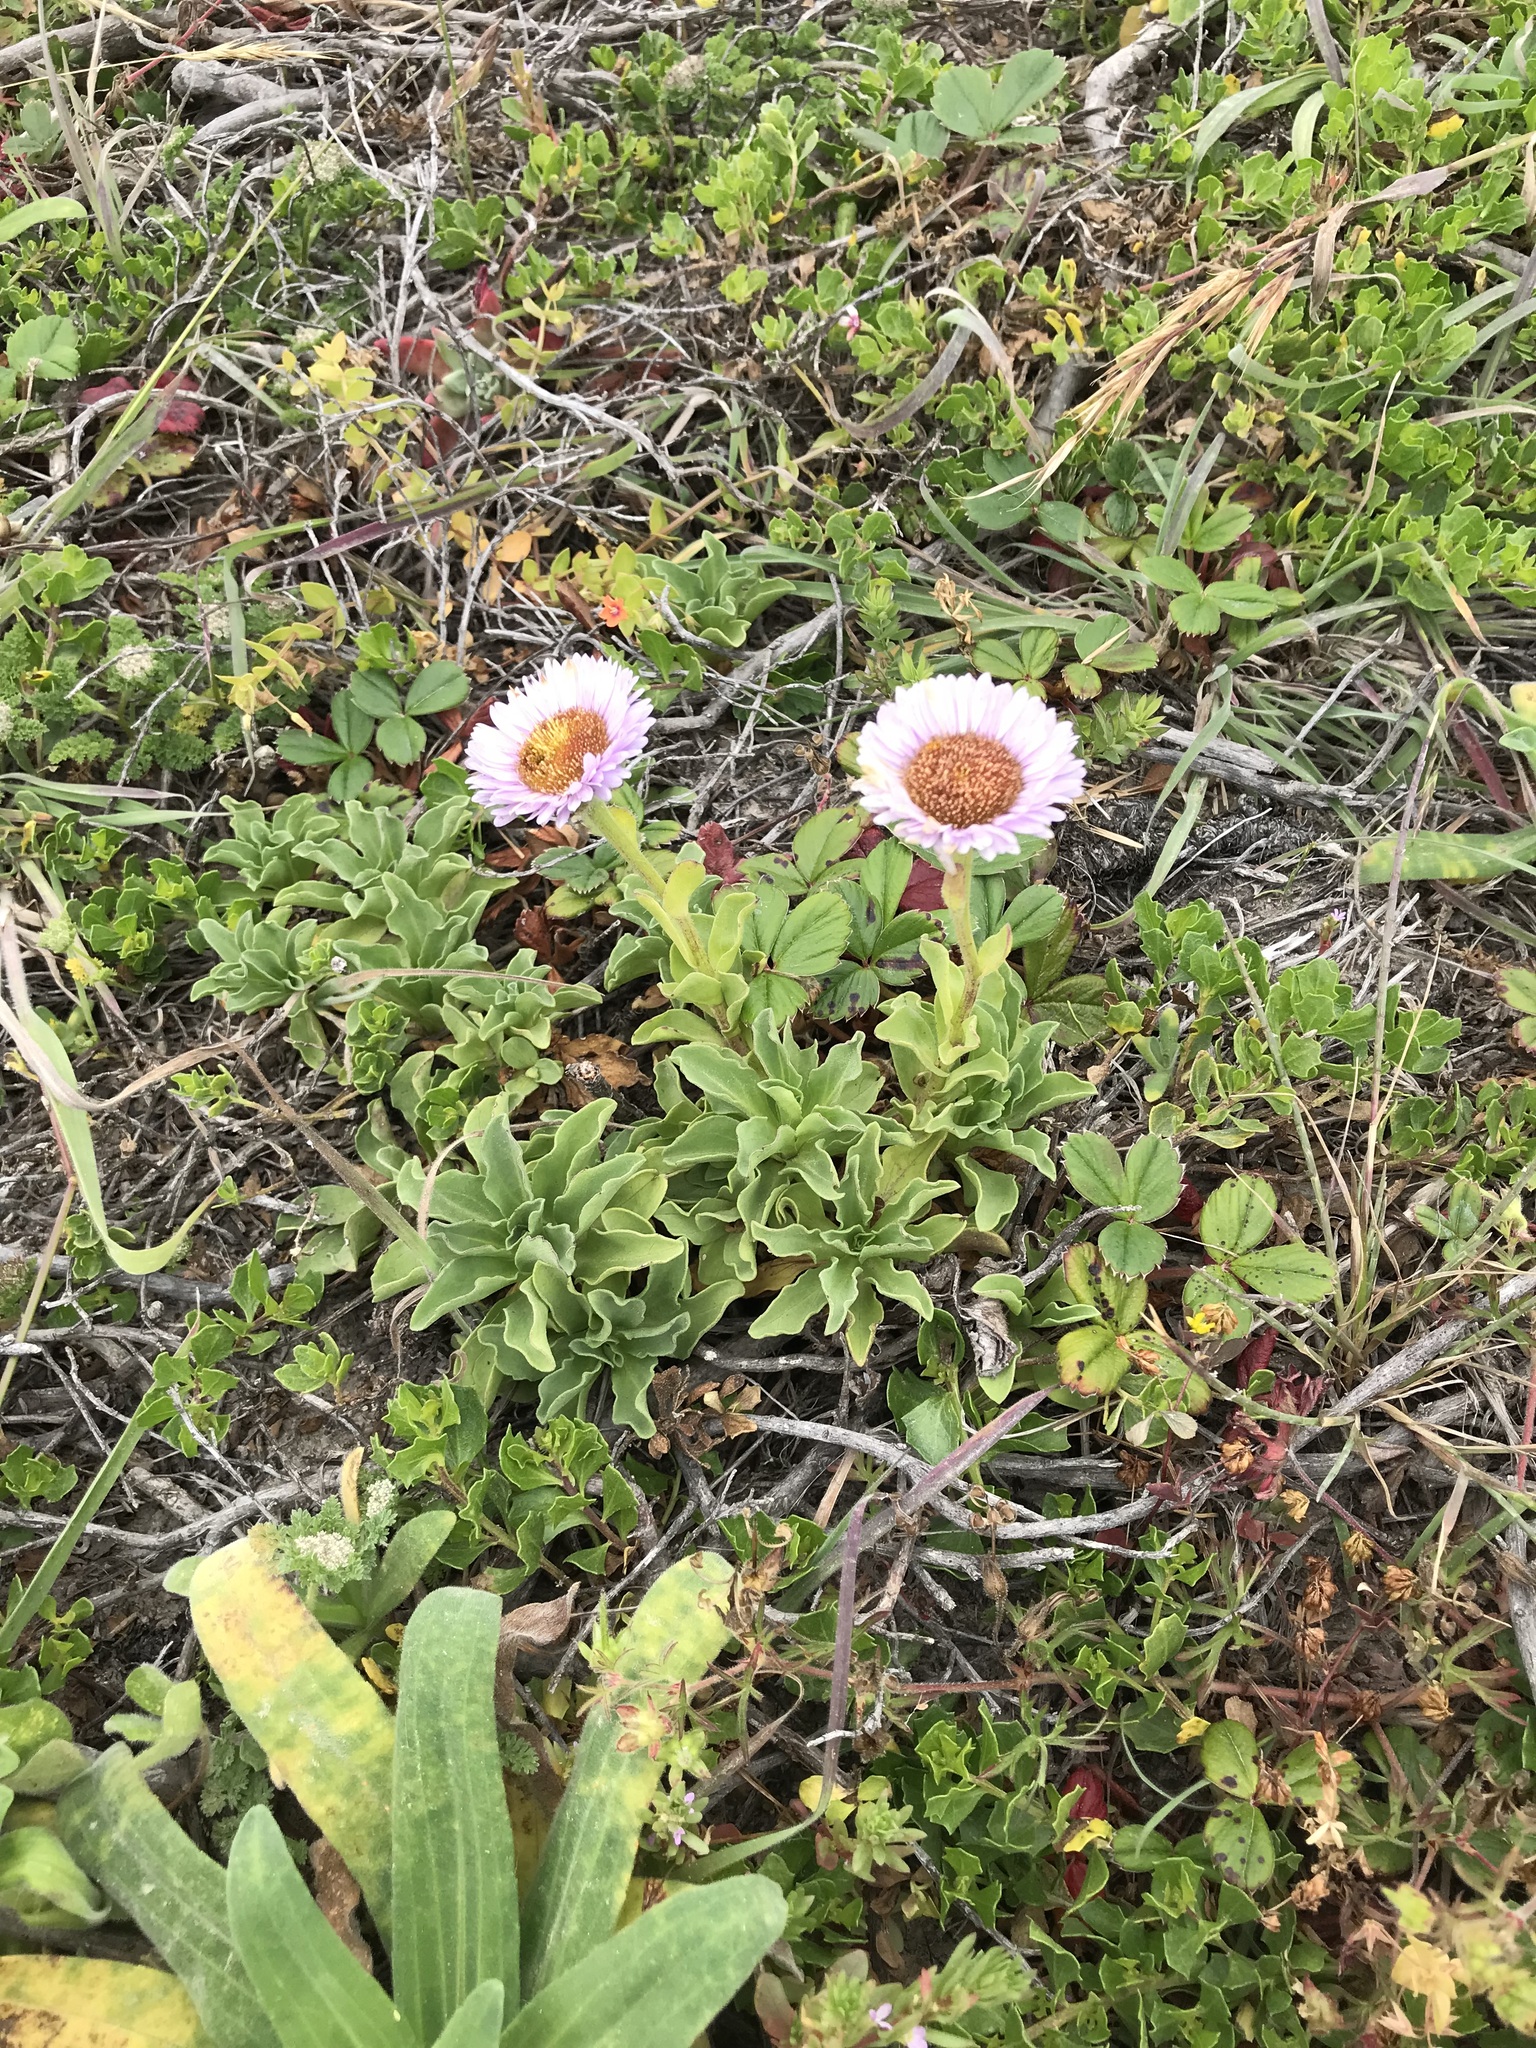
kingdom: Plantae
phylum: Tracheophyta
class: Magnoliopsida
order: Asterales
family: Asteraceae
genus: Erigeron
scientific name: Erigeron glaucus
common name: Seaside daisy
